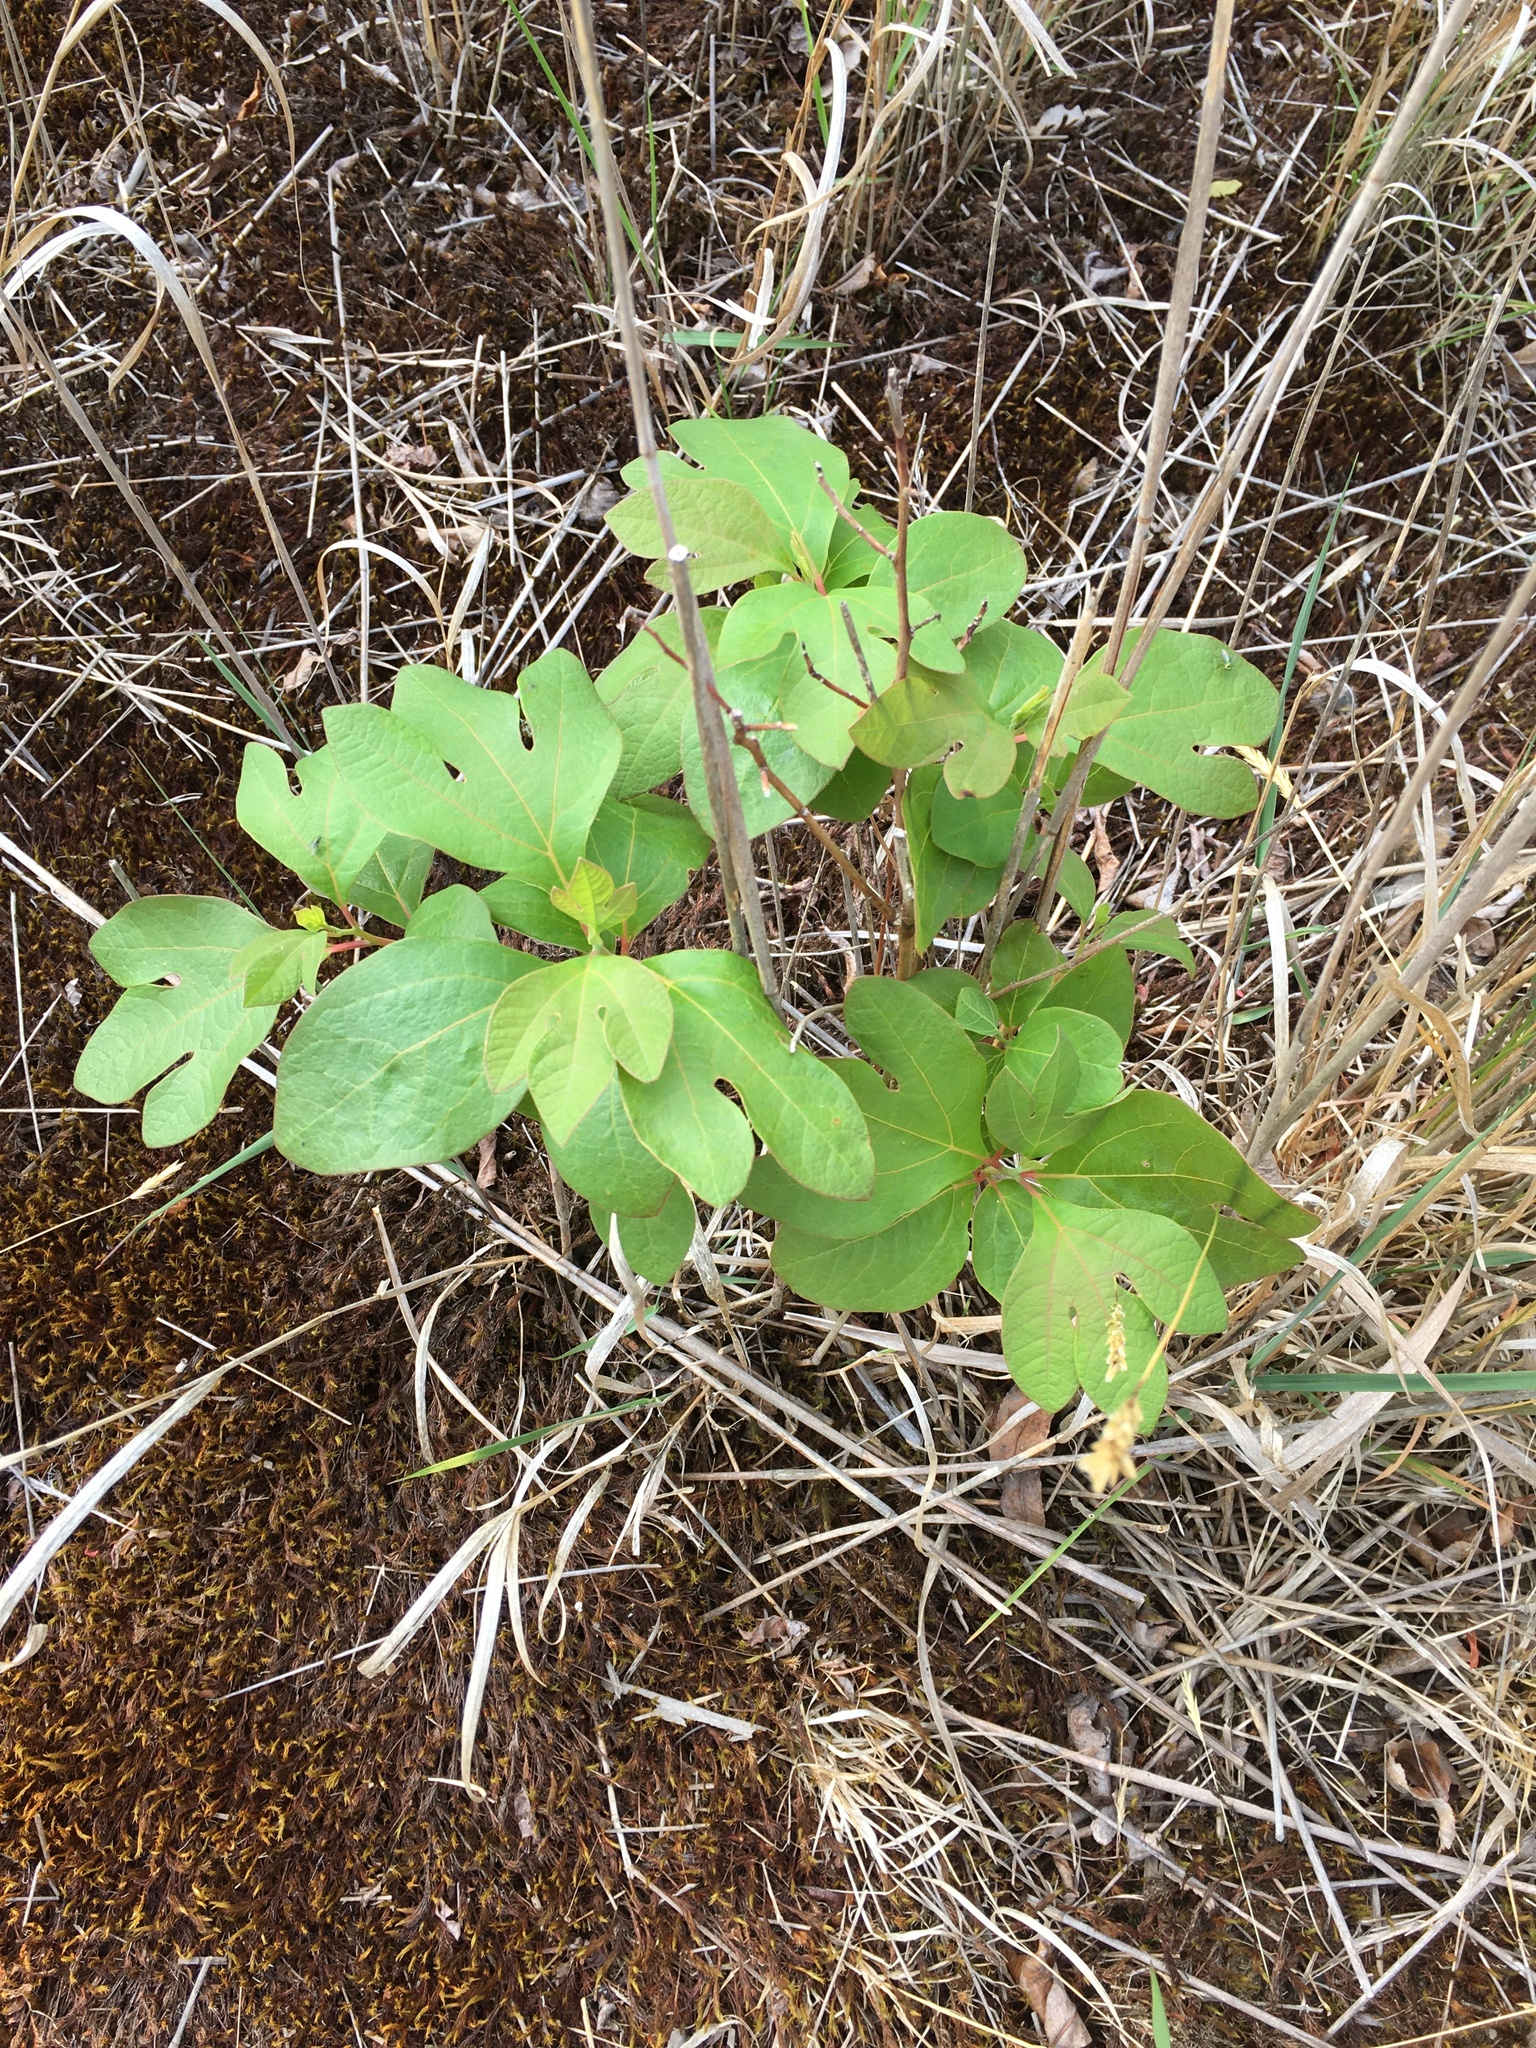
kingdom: Plantae
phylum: Tracheophyta
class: Magnoliopsida
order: Laurales
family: Lauraceae
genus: Sassafras
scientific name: Sassafras albidum
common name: Sassafras
